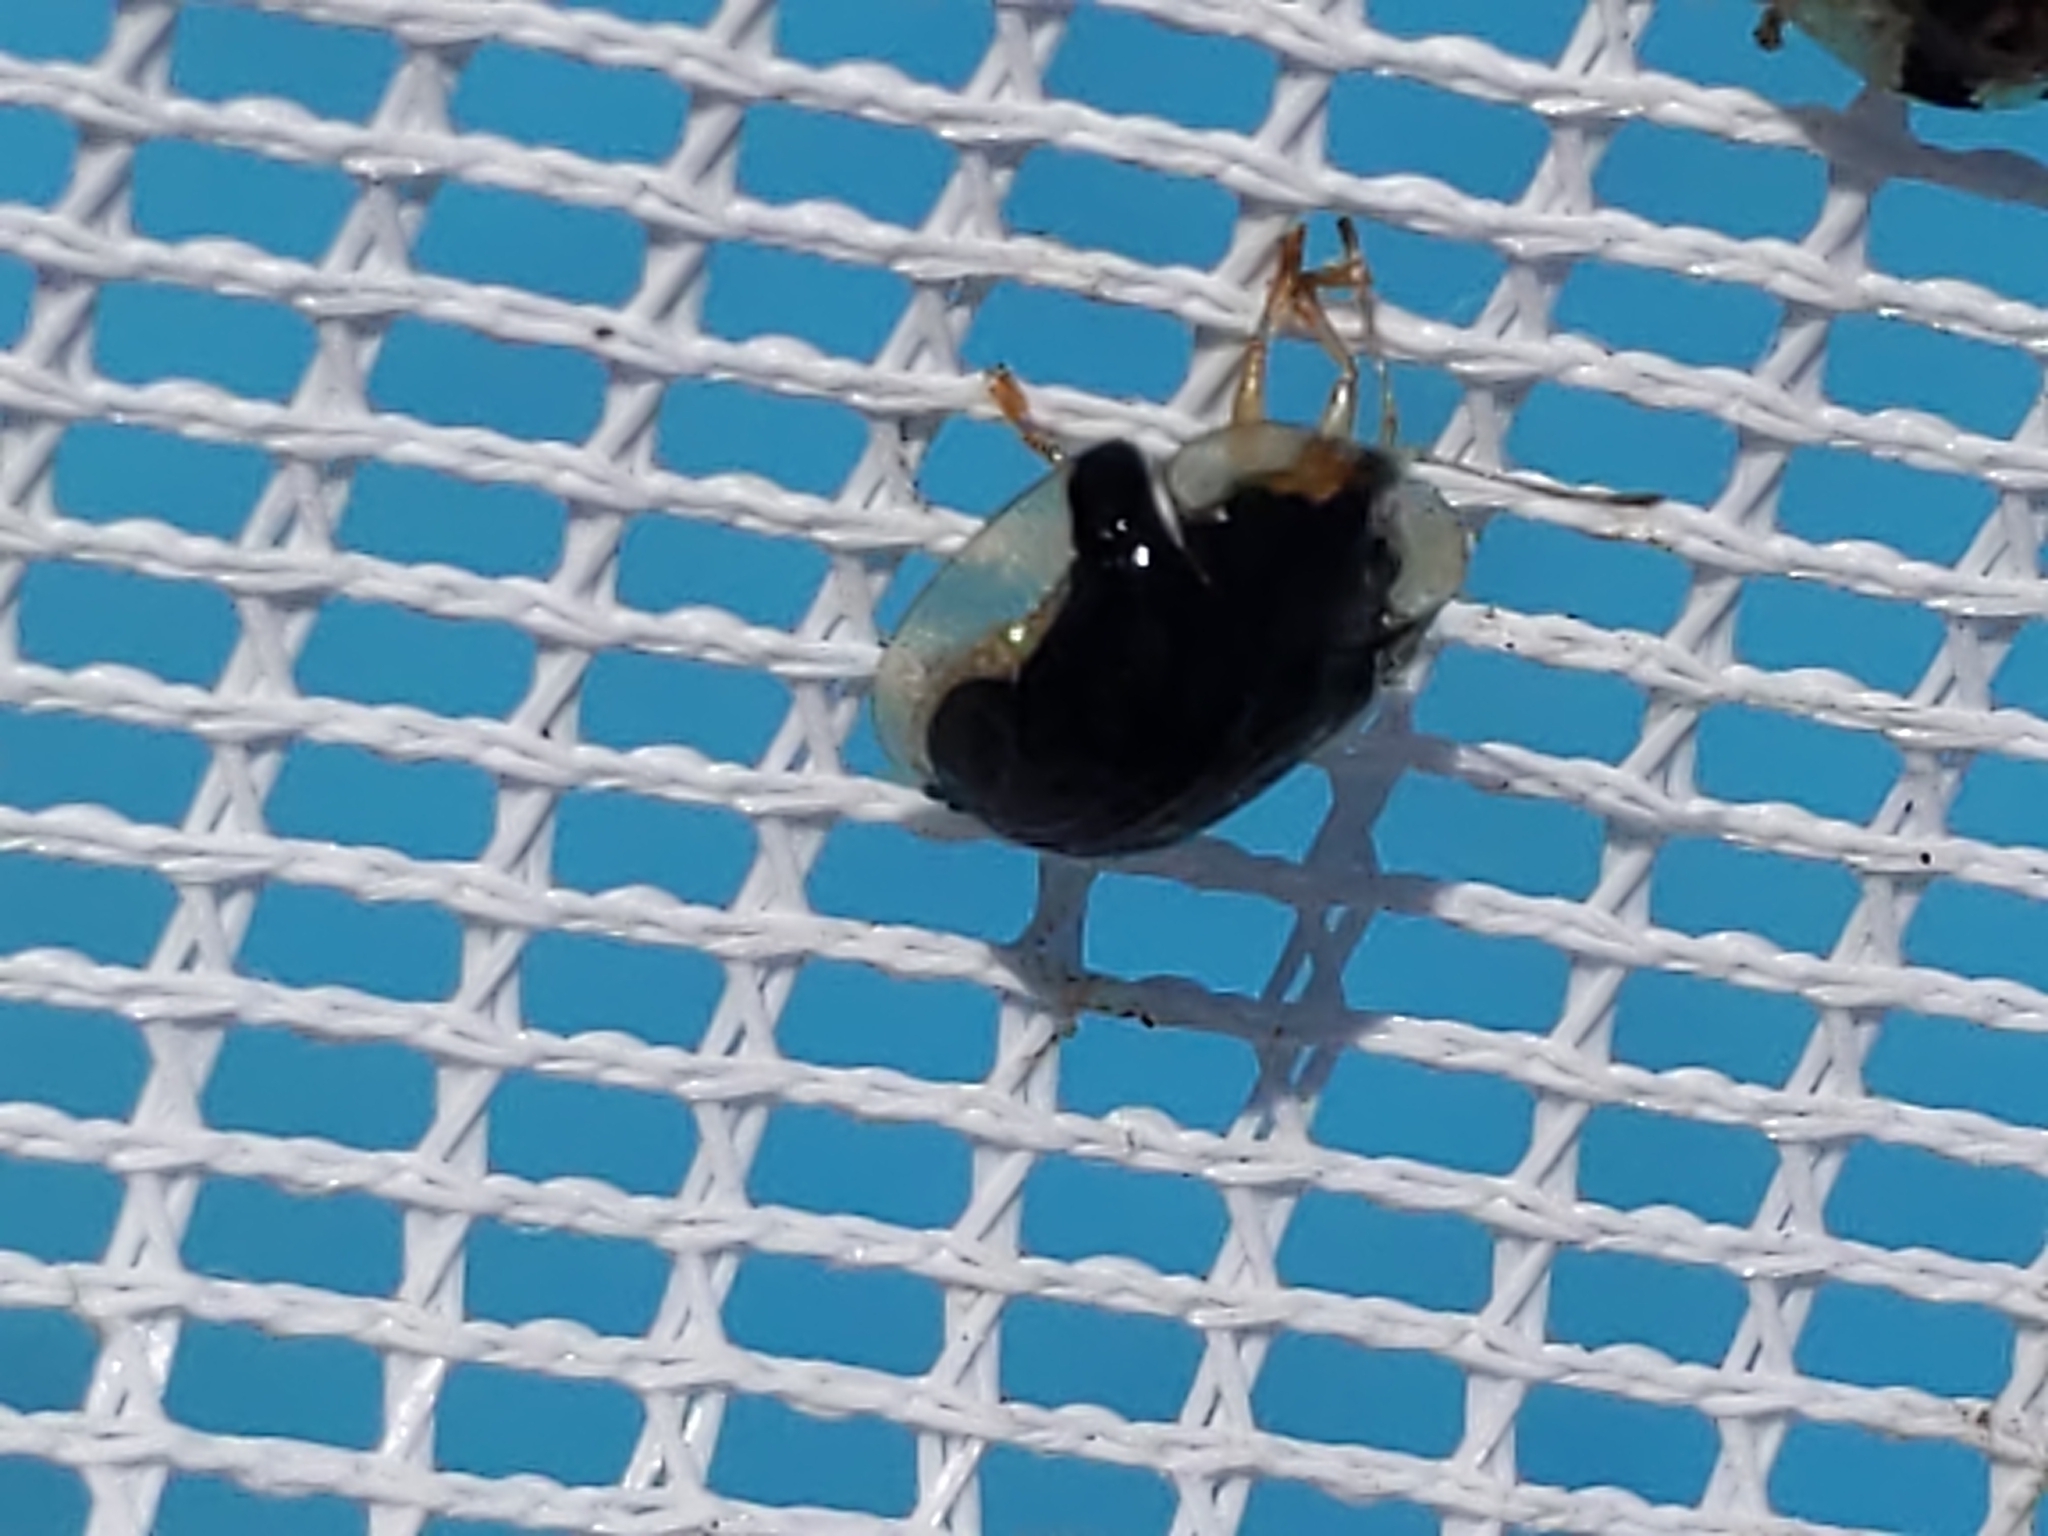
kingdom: Animalia
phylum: Arthropoda
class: Insecta
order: Coleoptera
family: Chrysomelidae
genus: Deloyala
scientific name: Deloyala guttata
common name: Mottled tortoise beetle
